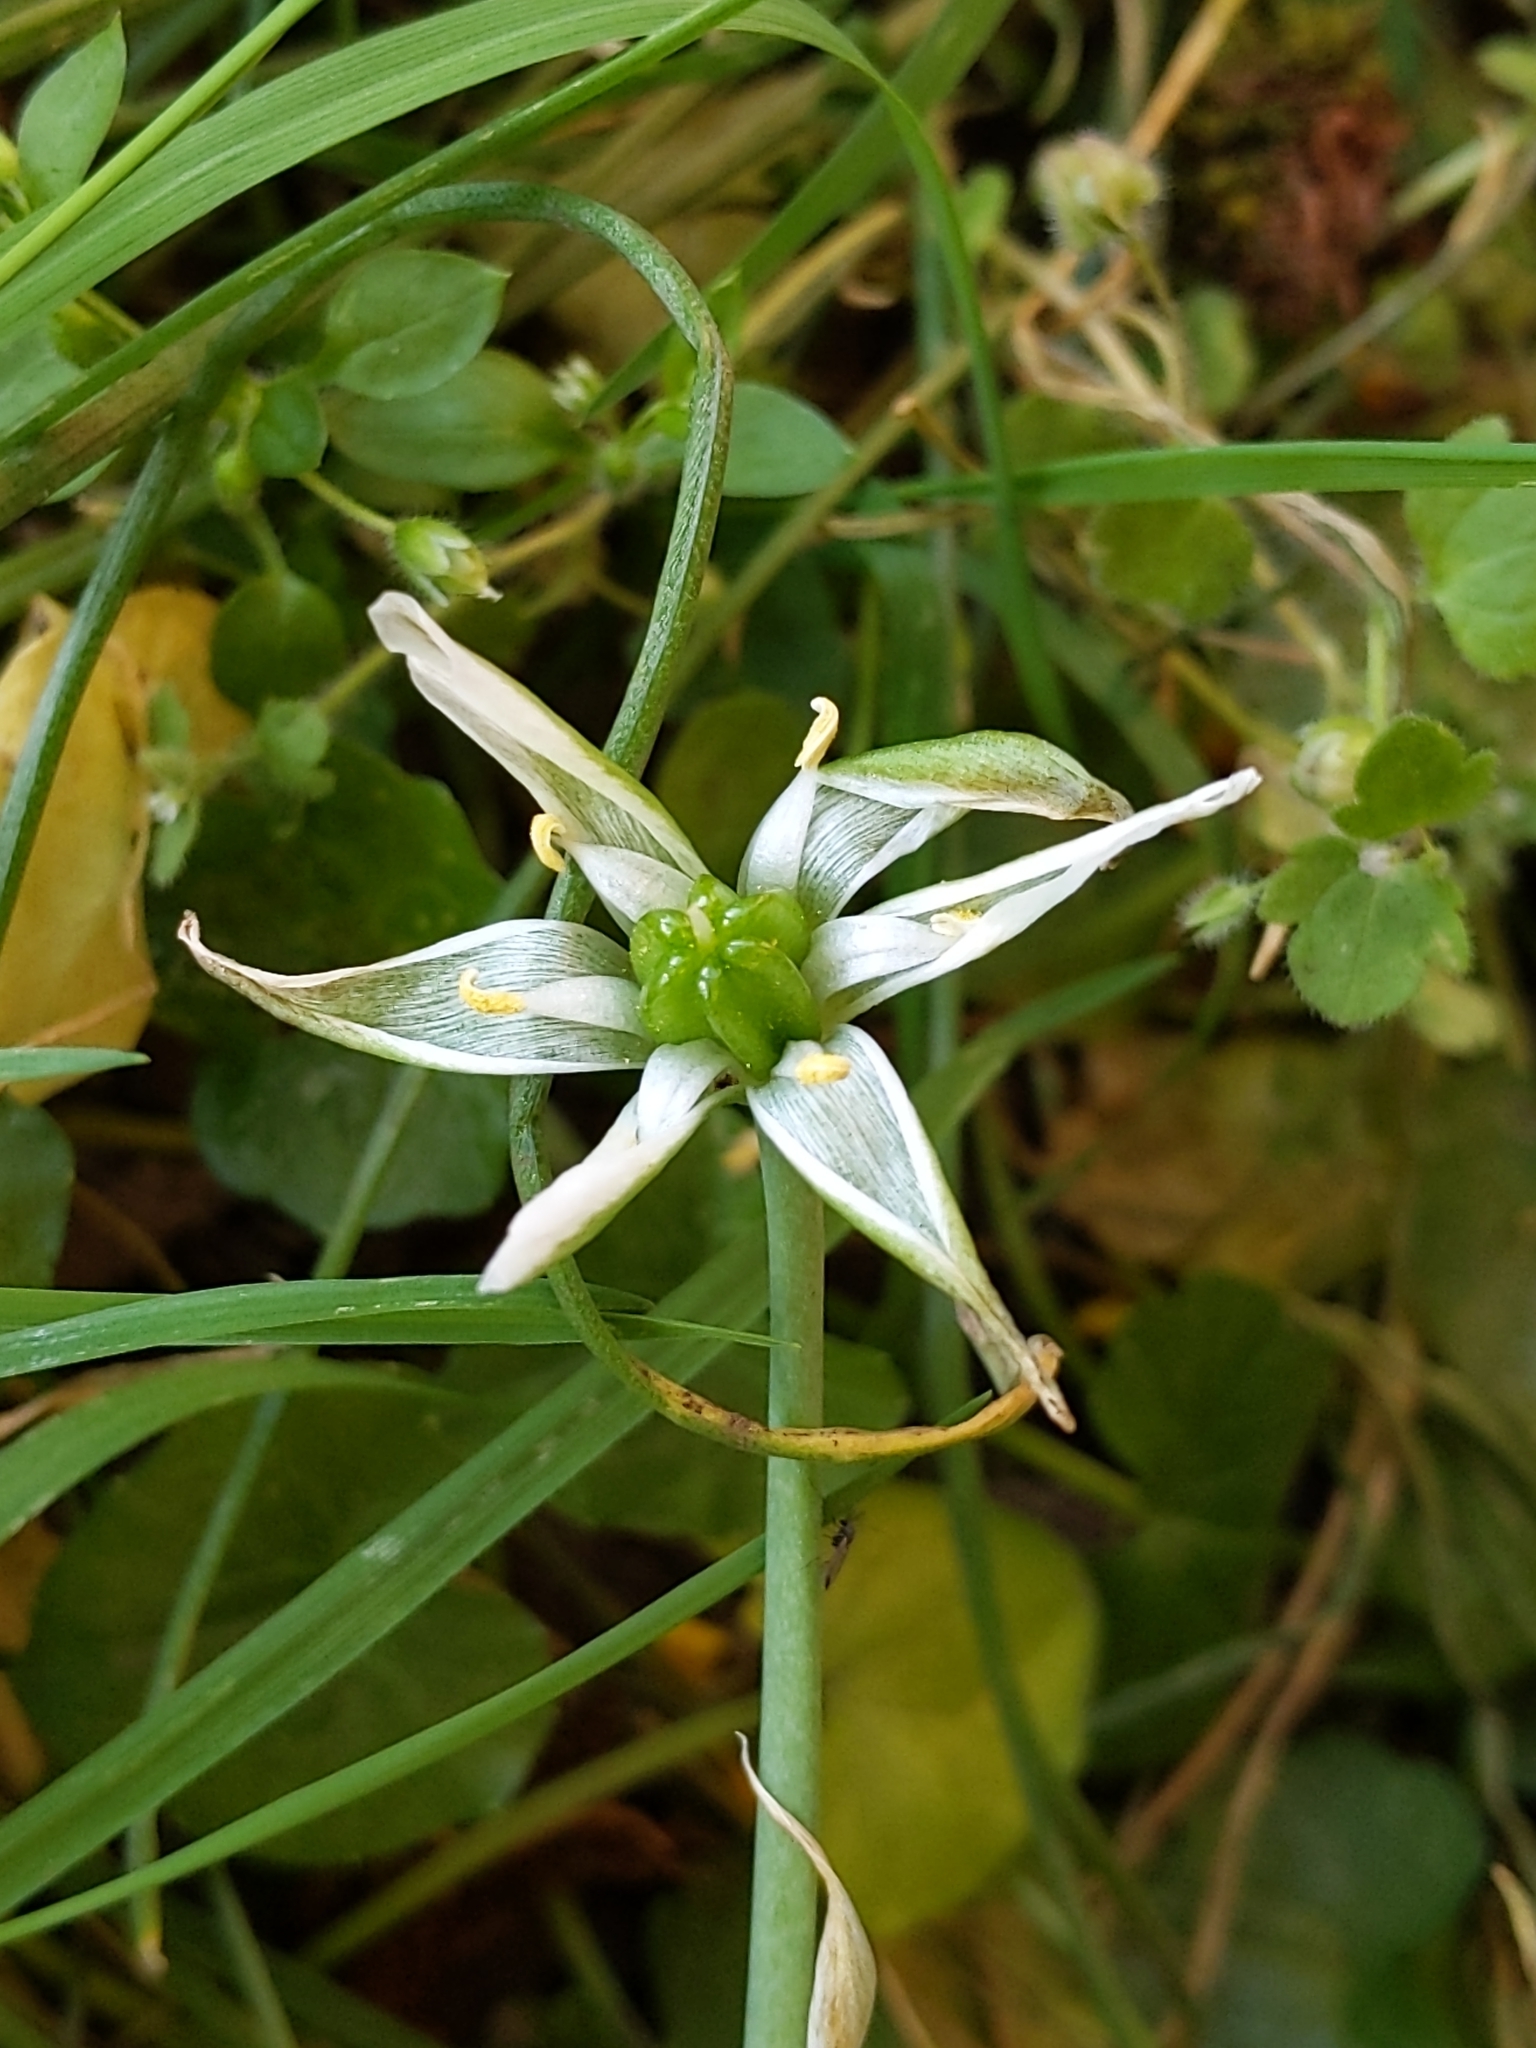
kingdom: Plantae
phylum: Tracheophyta
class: Liliopsida
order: Asparagales
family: Asparagaceae
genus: Ornithogalum
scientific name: Ornithogalum umbellatum
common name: Garden star-of-bethlehem
